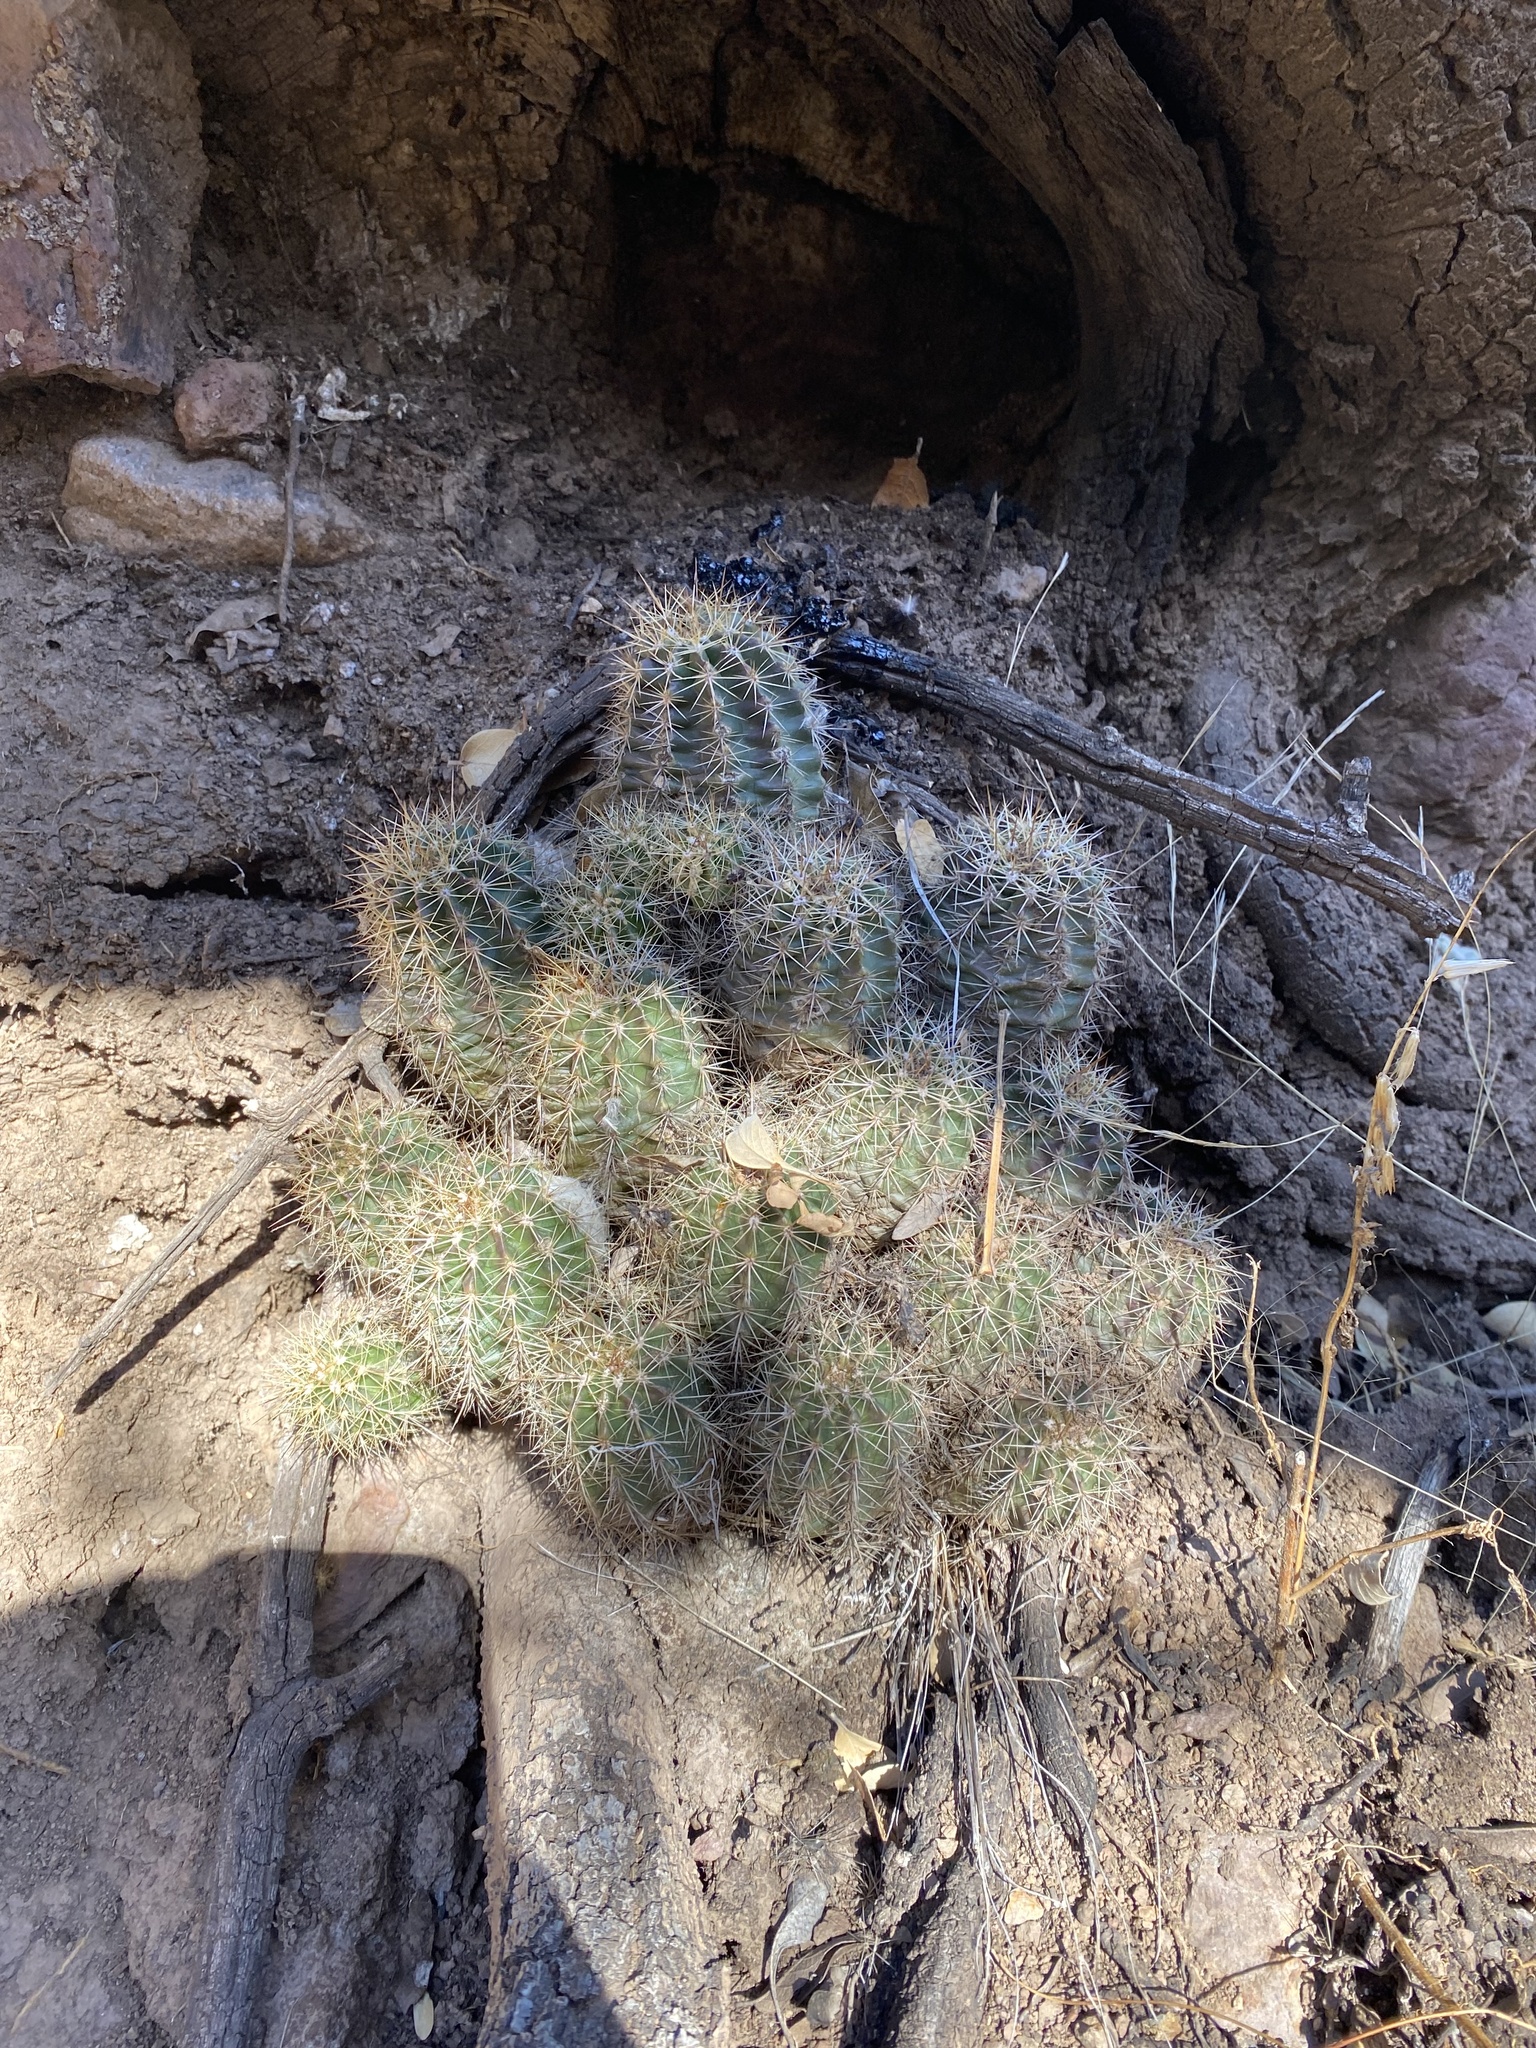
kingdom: Plantae
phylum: Tracheophyta
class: Magnoliopsida
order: Caryophyllales
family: Cactaceae
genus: Echinocereus
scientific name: Echinocereus polyacanthus
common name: Mojave mound cactus
